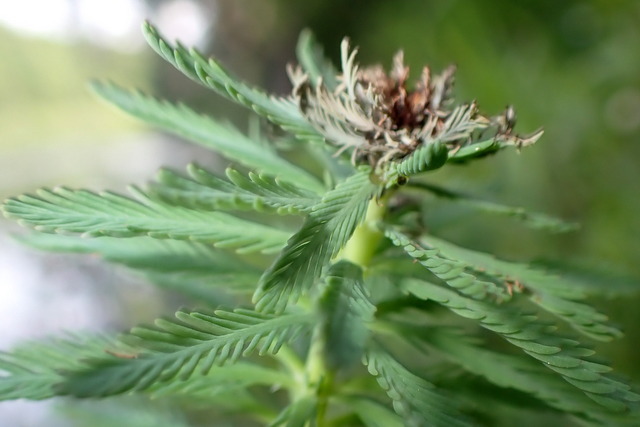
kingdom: Plantae
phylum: Tracheophyta
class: Magnoliopsida
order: Saxifragales
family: Haloragaceae
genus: Myriophyllum
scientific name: Myriophyllum aquaticum
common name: Parrot's feather
